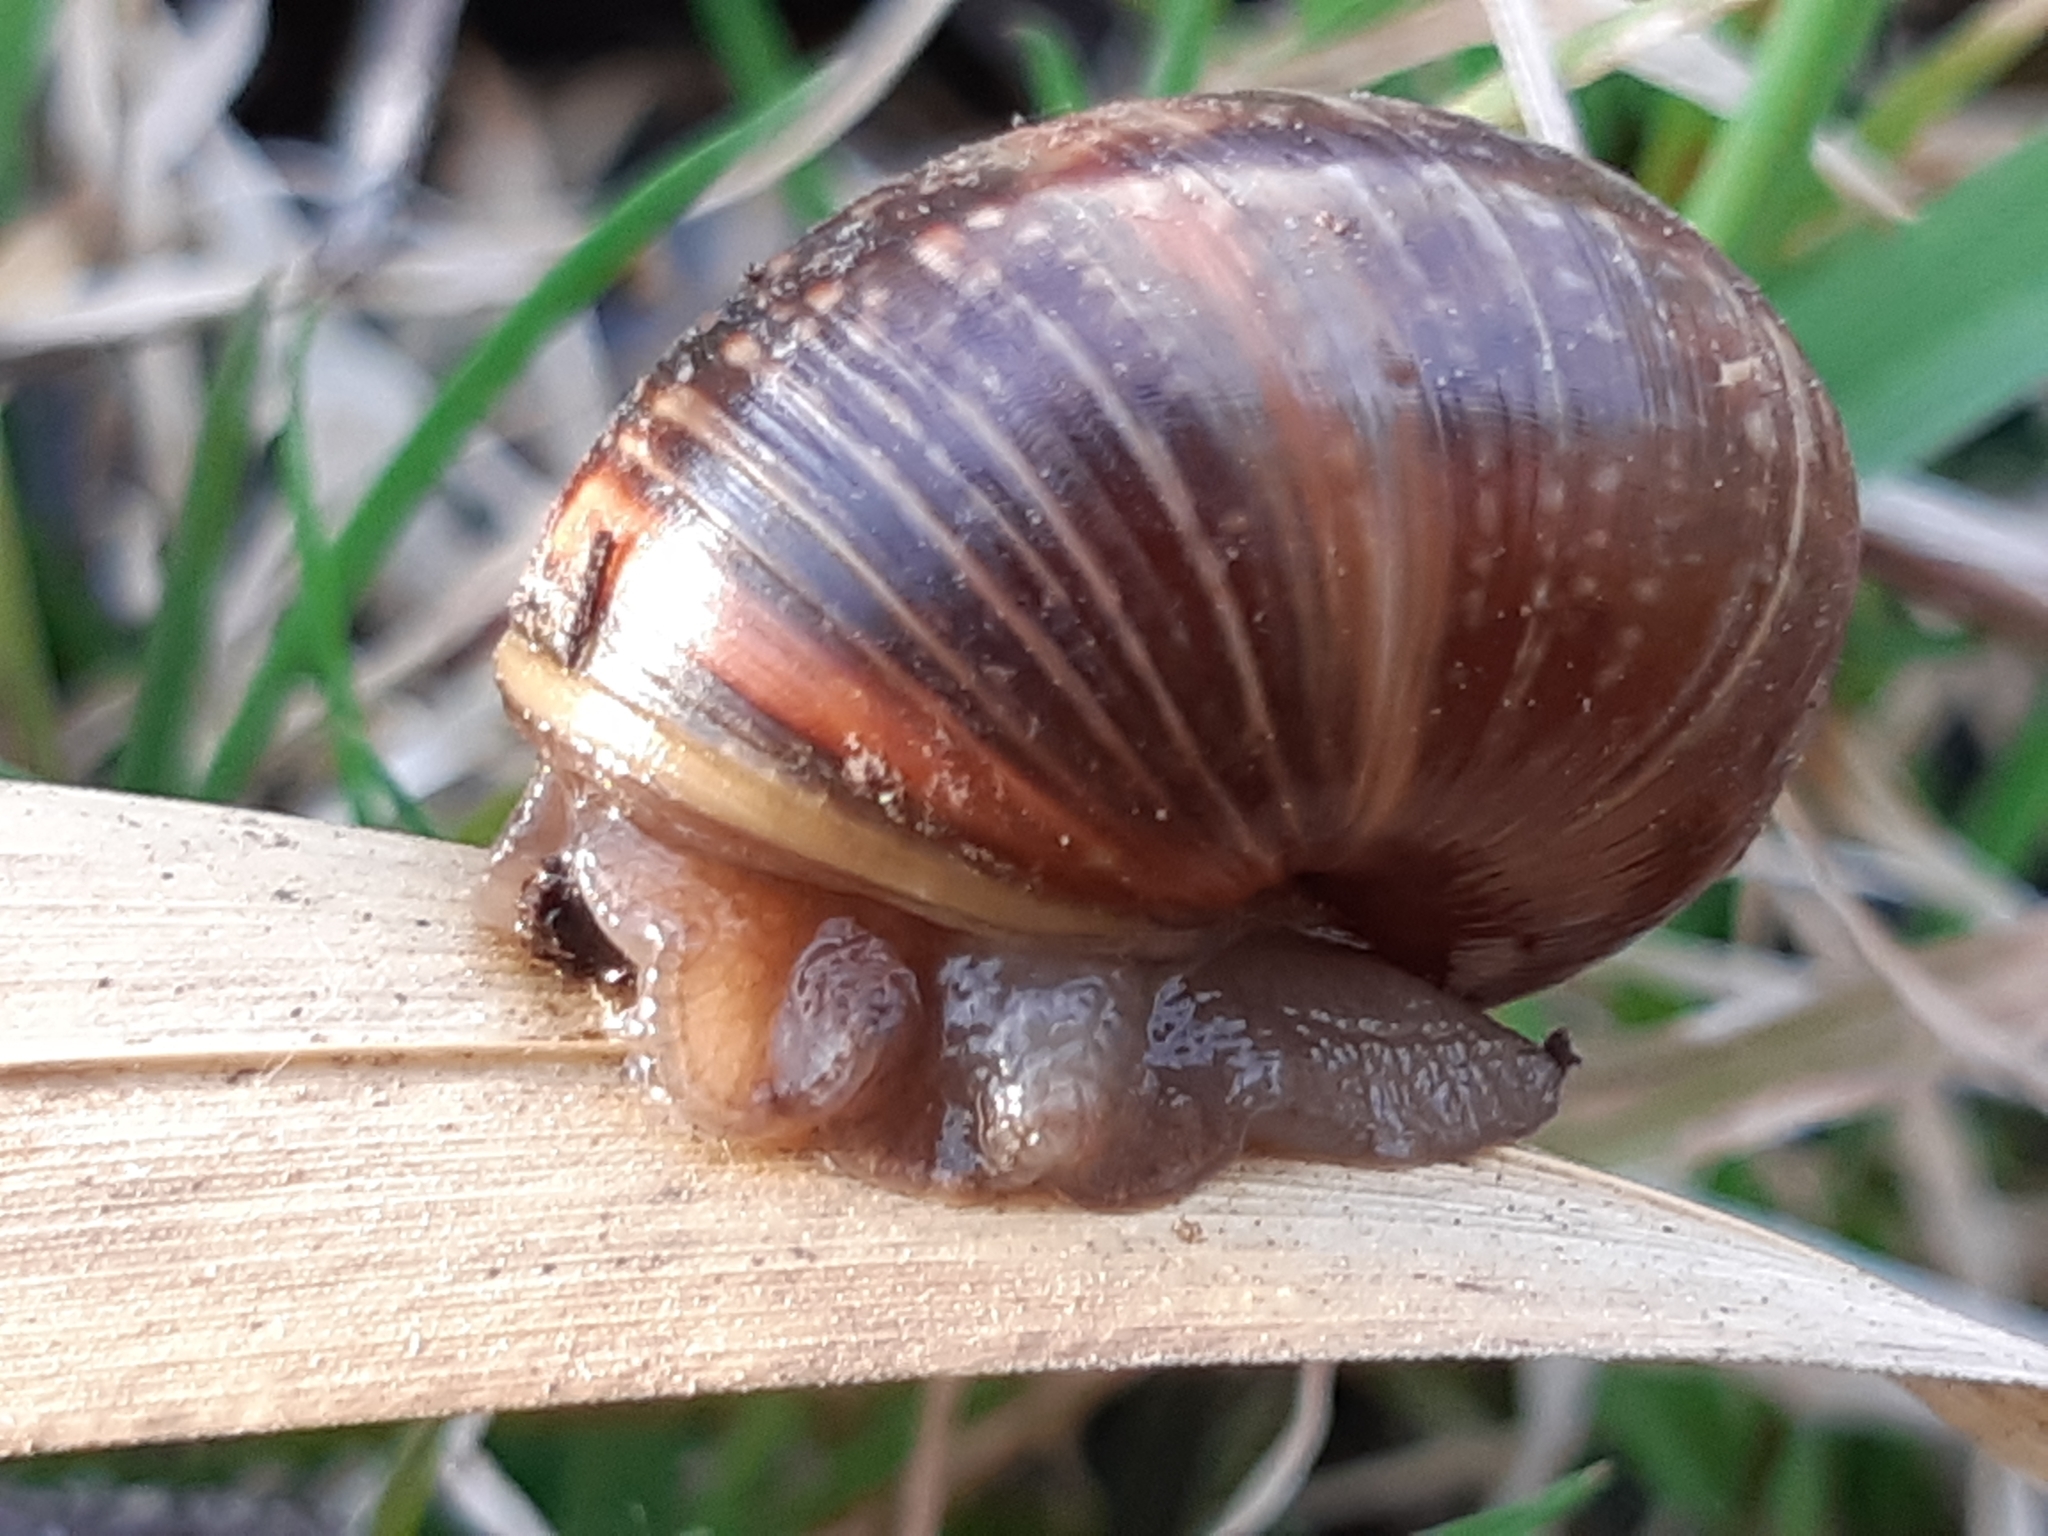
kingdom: Animalia
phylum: Mollusca
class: Gastropoda
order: Stylommatophora
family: Helicidae
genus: Arianta
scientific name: Arianta arbustorum
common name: Copse snail
